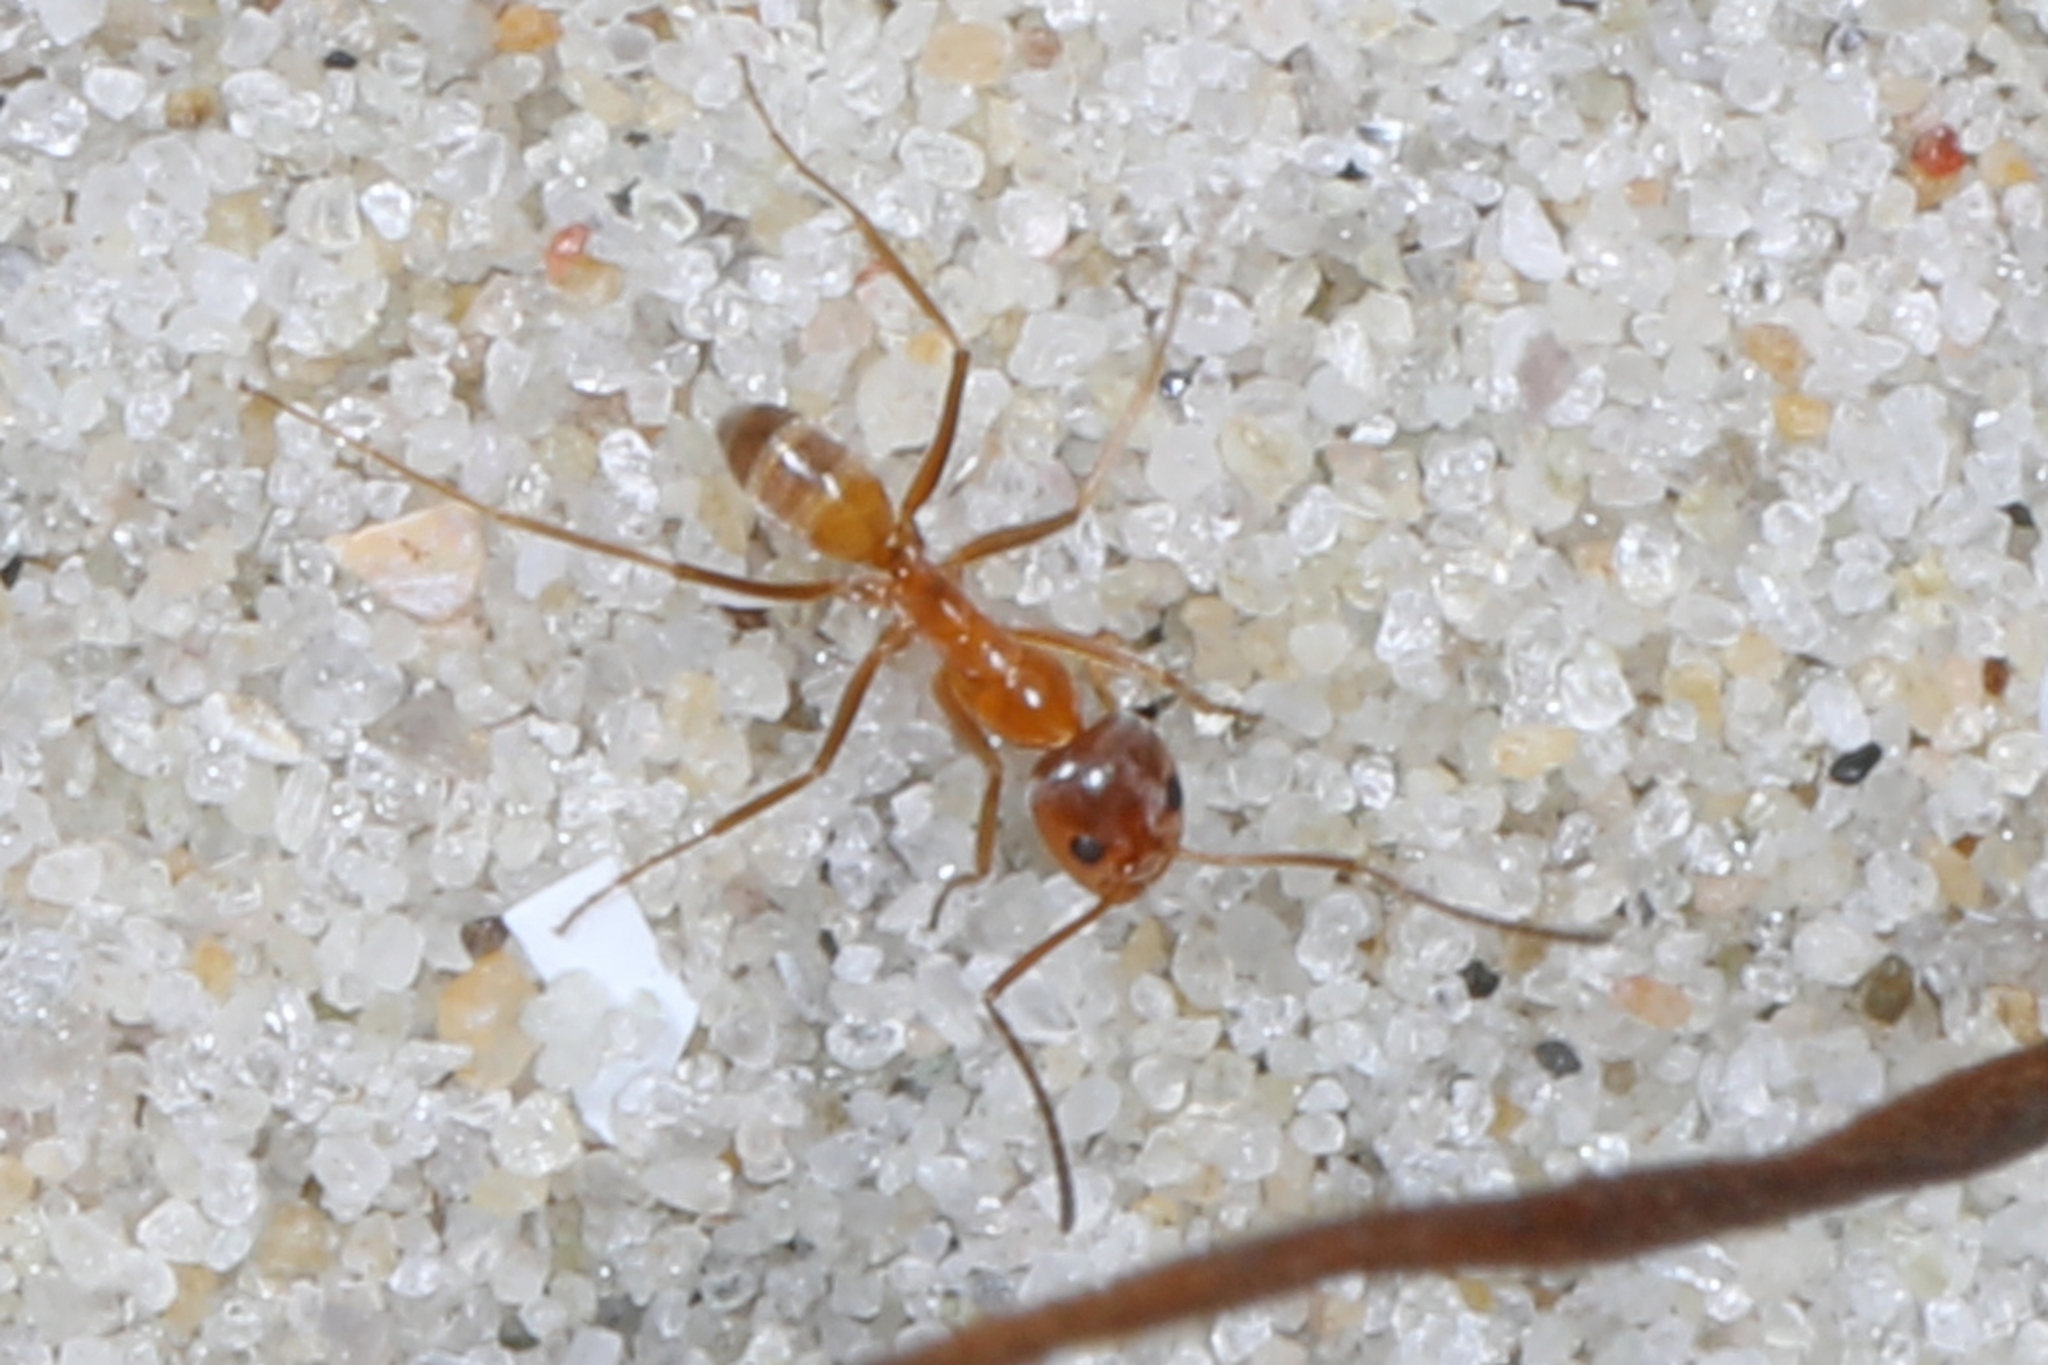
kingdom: Animalia
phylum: Arthropoda
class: Insecta
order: Hymenoptera
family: Formicidae
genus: Dorymyrmex
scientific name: Dorymyrmex bureni
